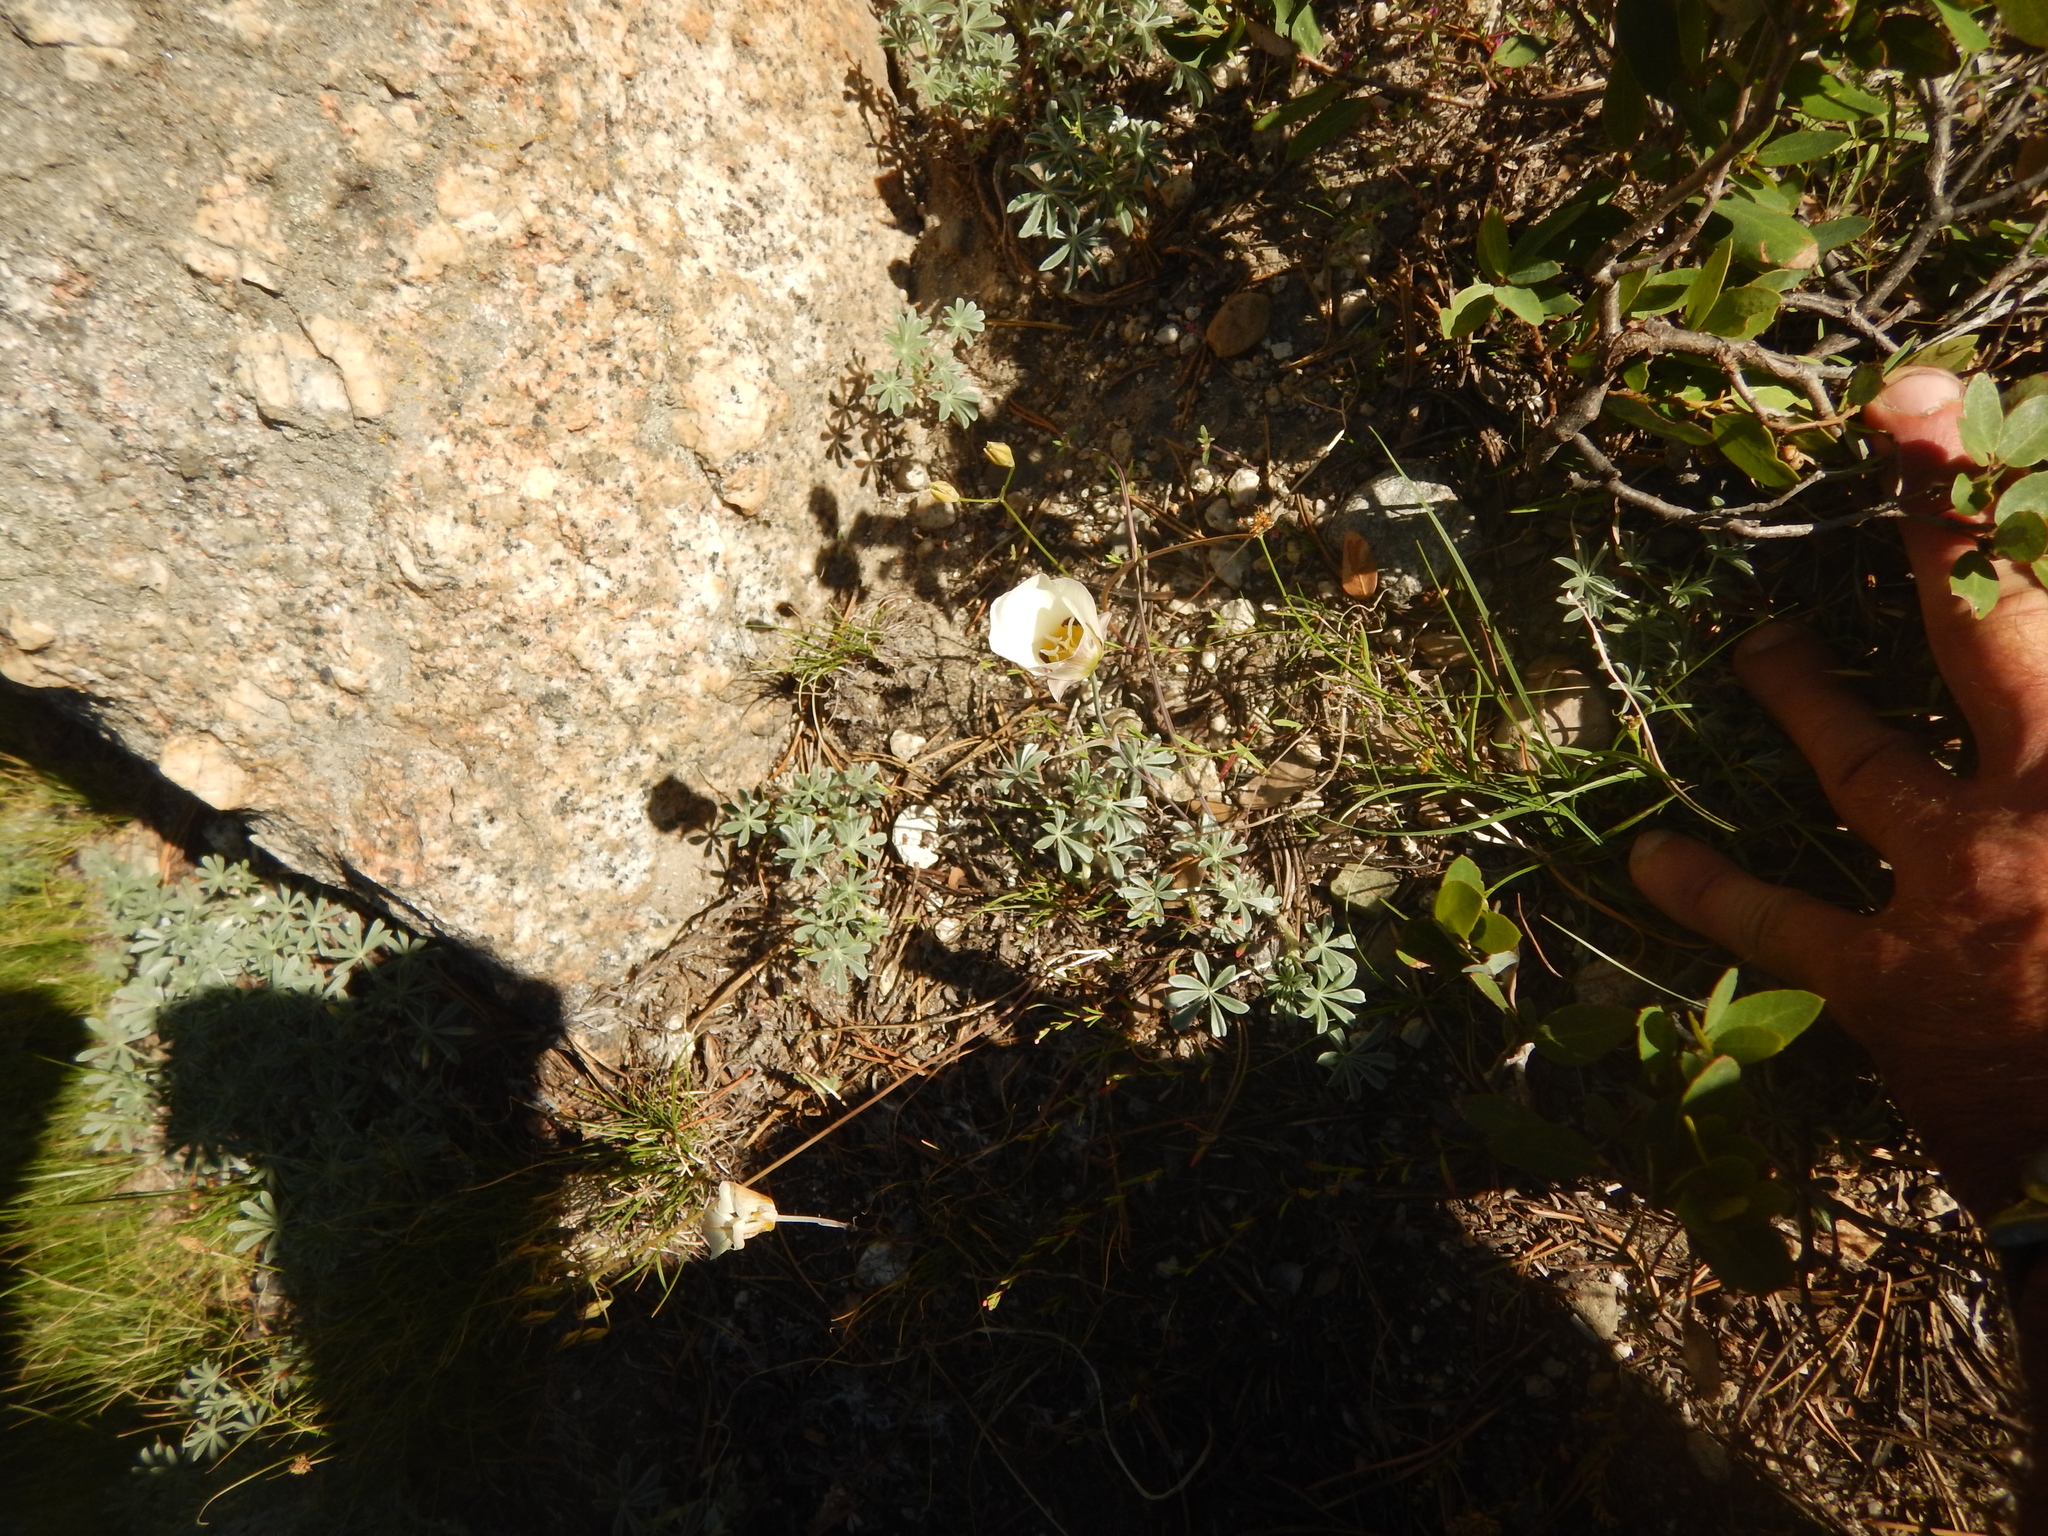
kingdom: Plantae
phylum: Tracheophyta
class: Liliopsida
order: Liliales
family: Liliaceae
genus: Calochortus
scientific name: Calochortus leichtlinii
